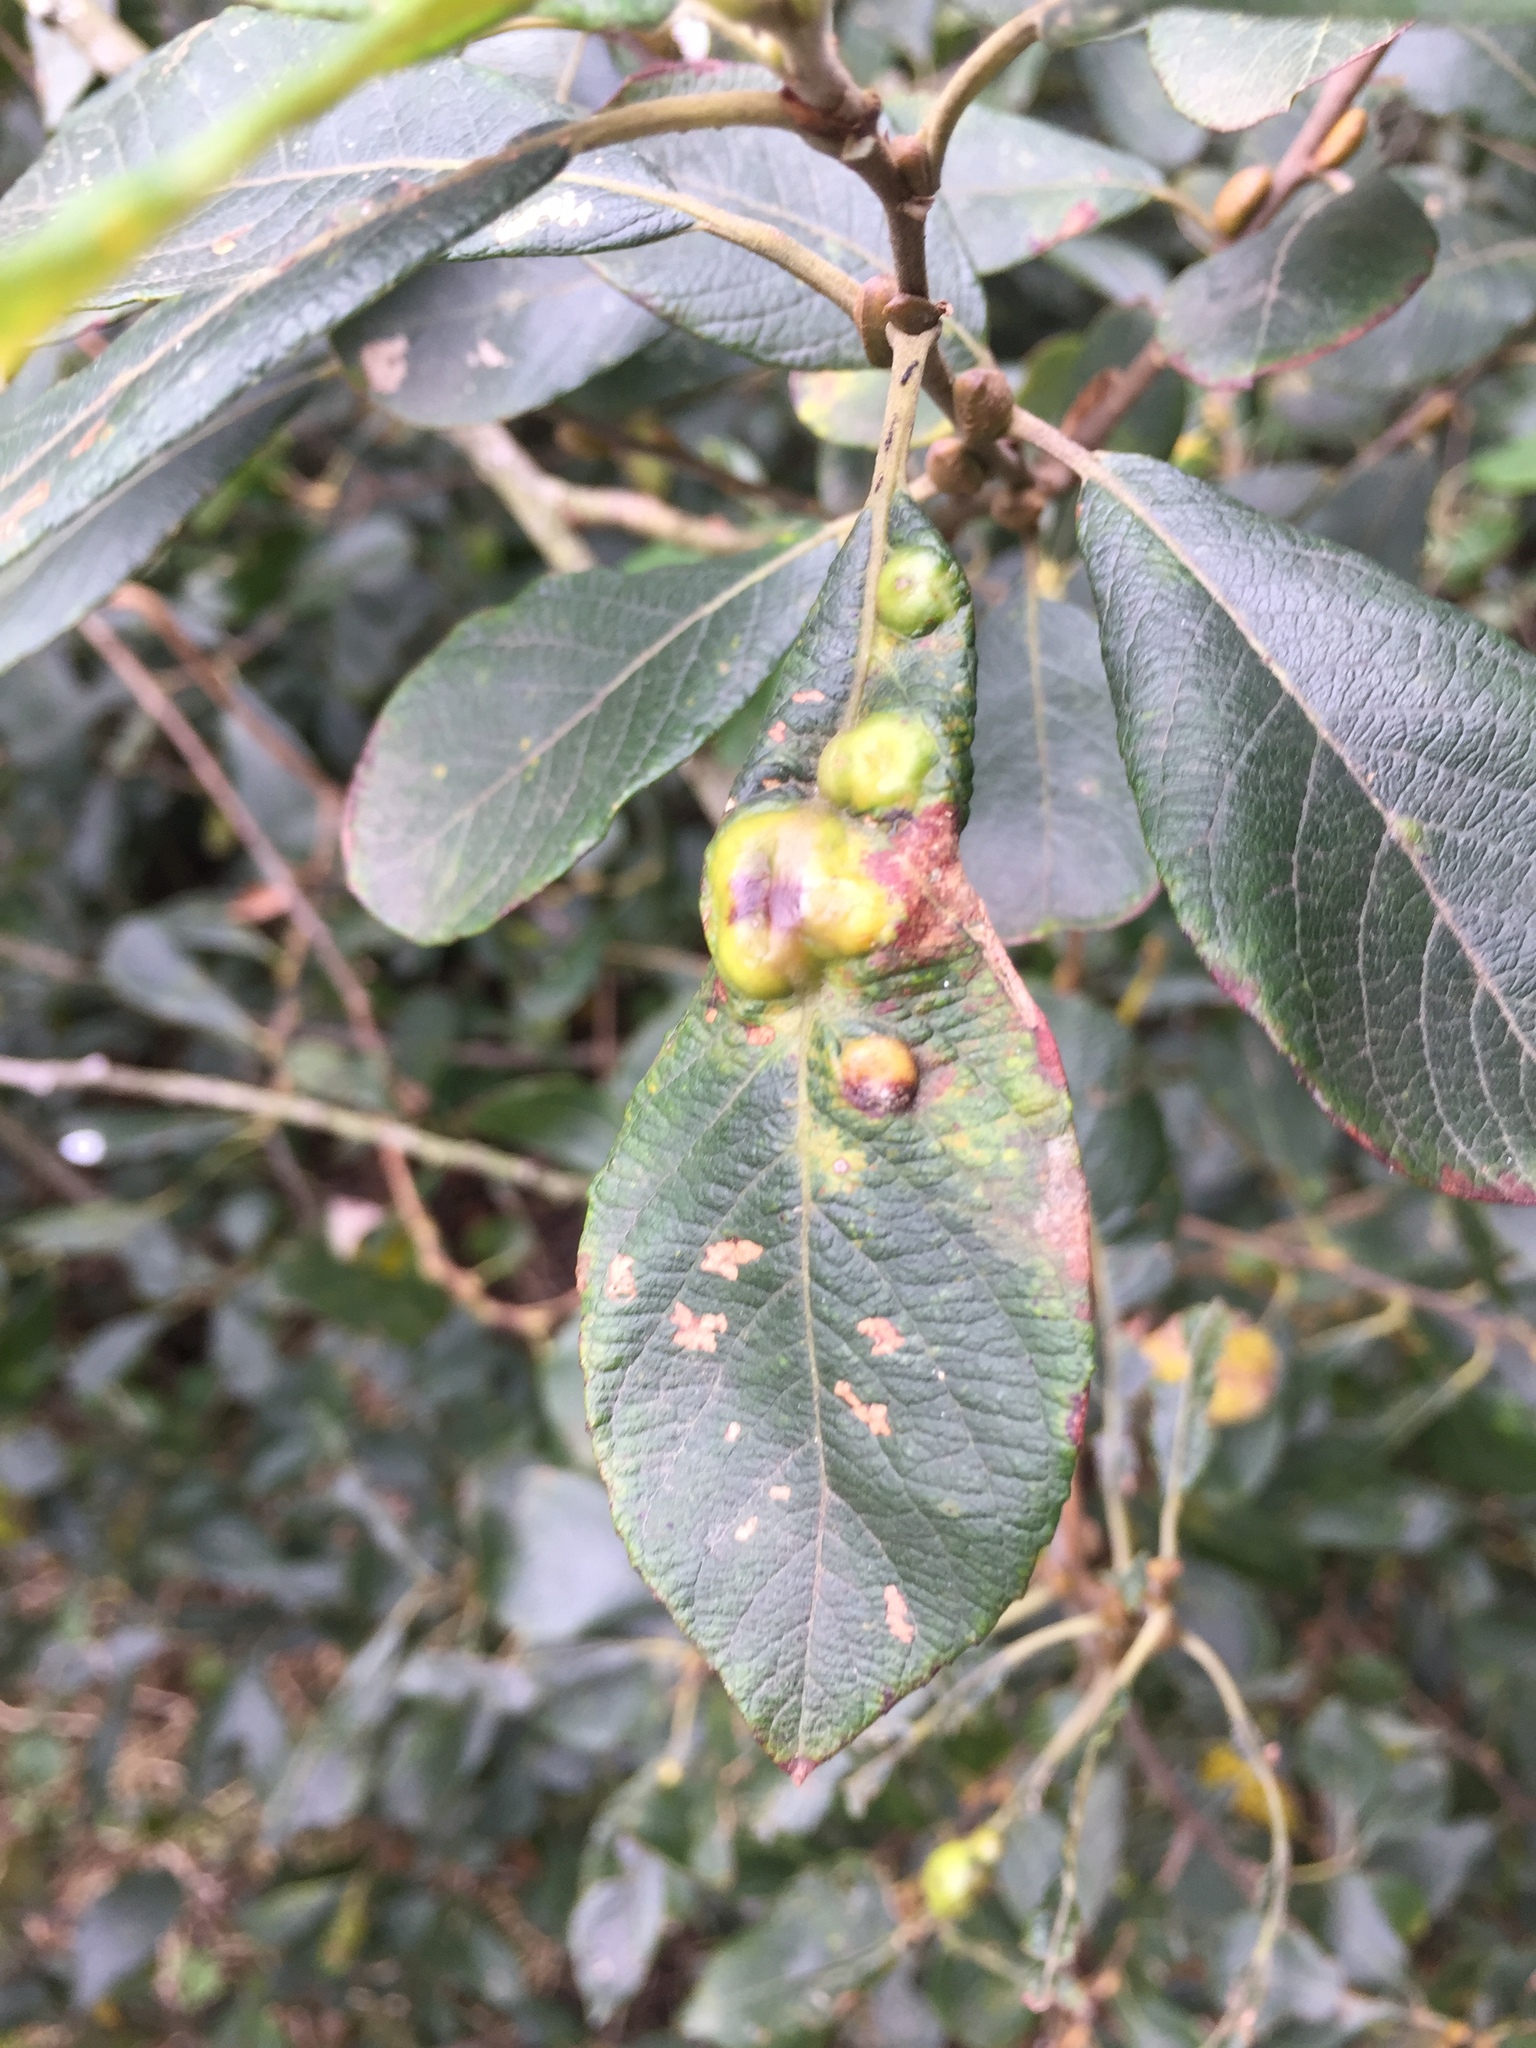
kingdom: Animalia
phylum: Arthropoda
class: Insecta
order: Diptera
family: Cecidomyiidae
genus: Iteomyia
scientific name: Iteomyia major
